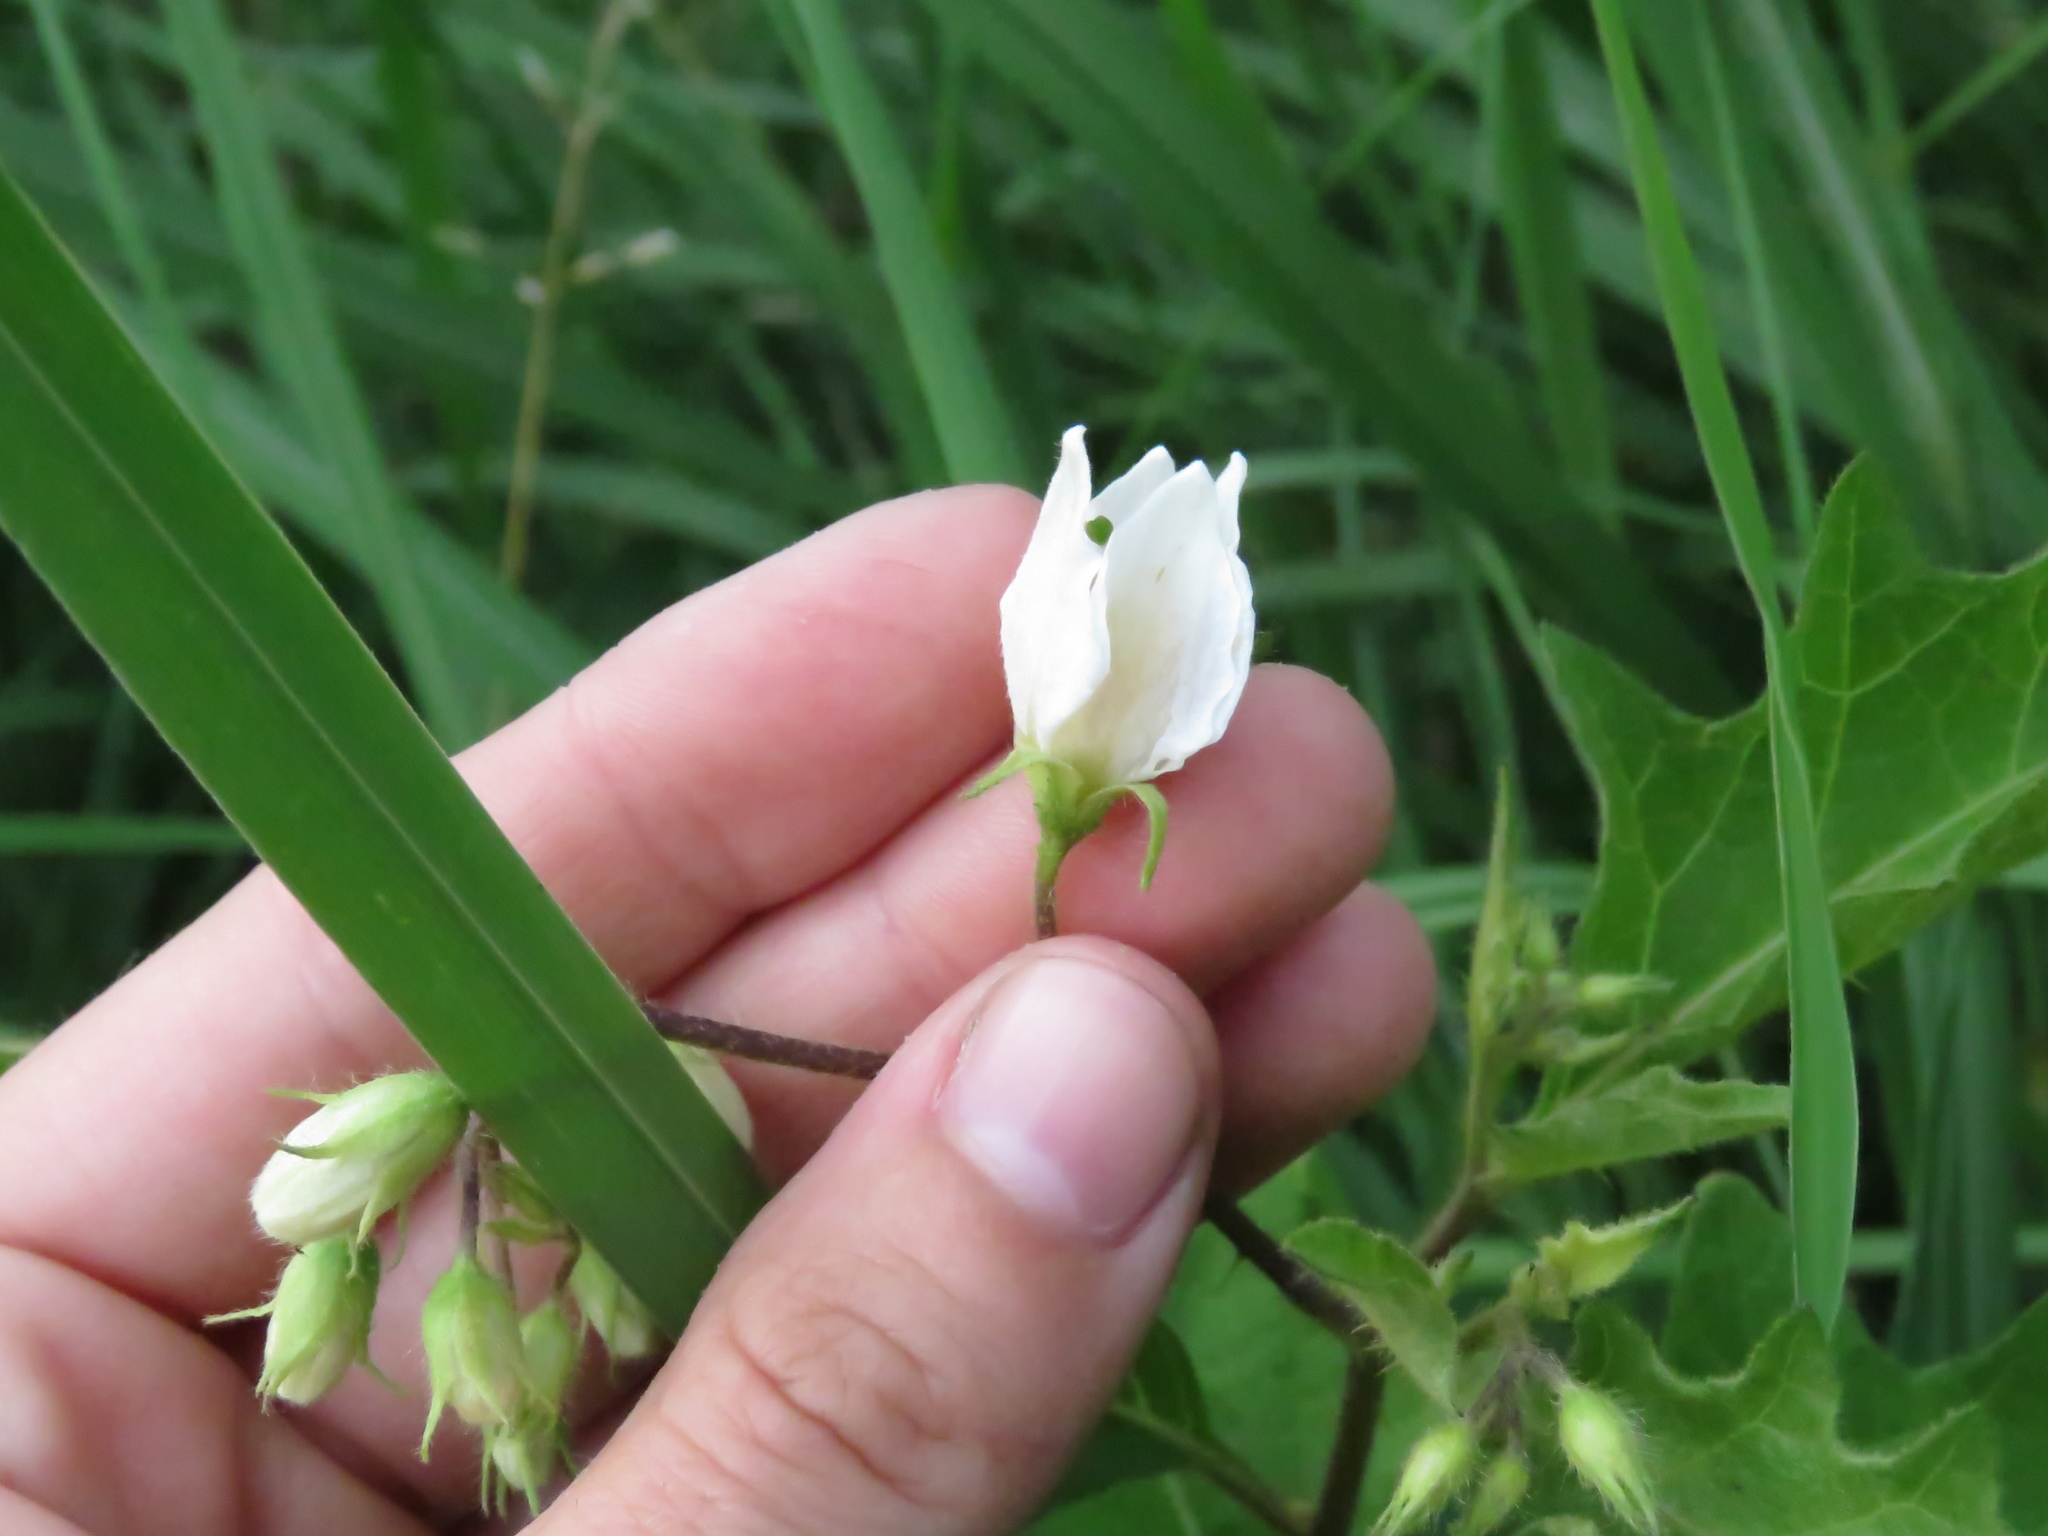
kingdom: Plantae
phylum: Tracheophyta
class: Magnoliopsida
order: Solanales
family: Solanaceae
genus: Solanum
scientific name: Solanum carolinense
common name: Horse-nettle
